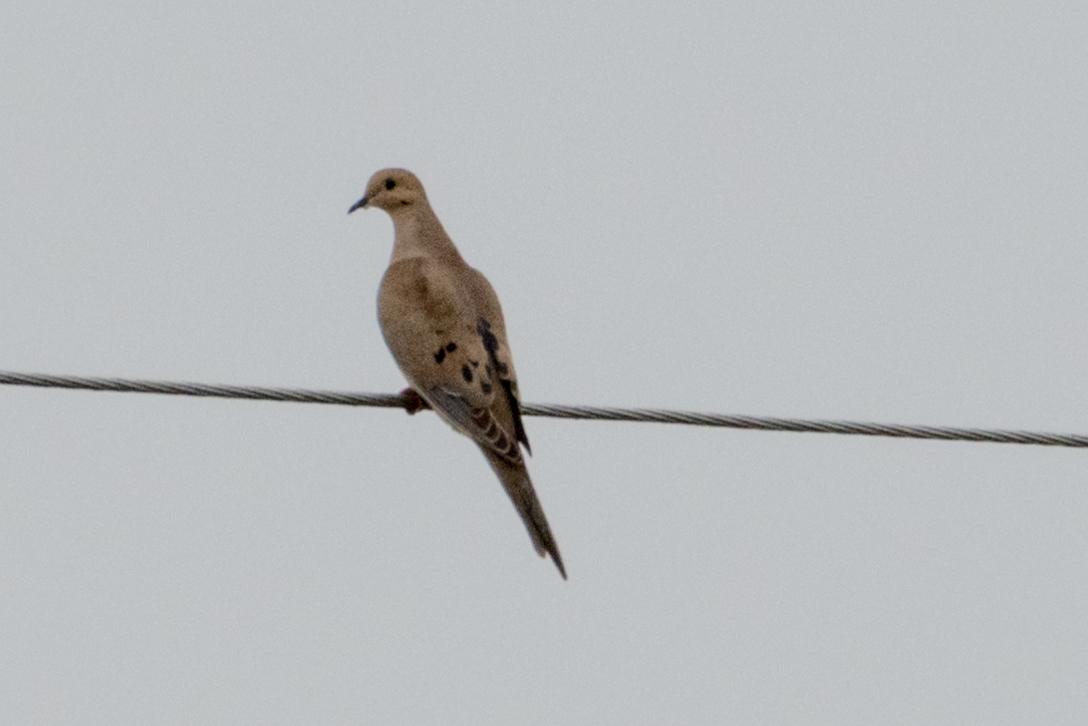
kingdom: Animalia
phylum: Chordata
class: Aves
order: Columbiformes
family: Columbidae
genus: Zenaida
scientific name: Zenaida macroura
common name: Mourning dove
